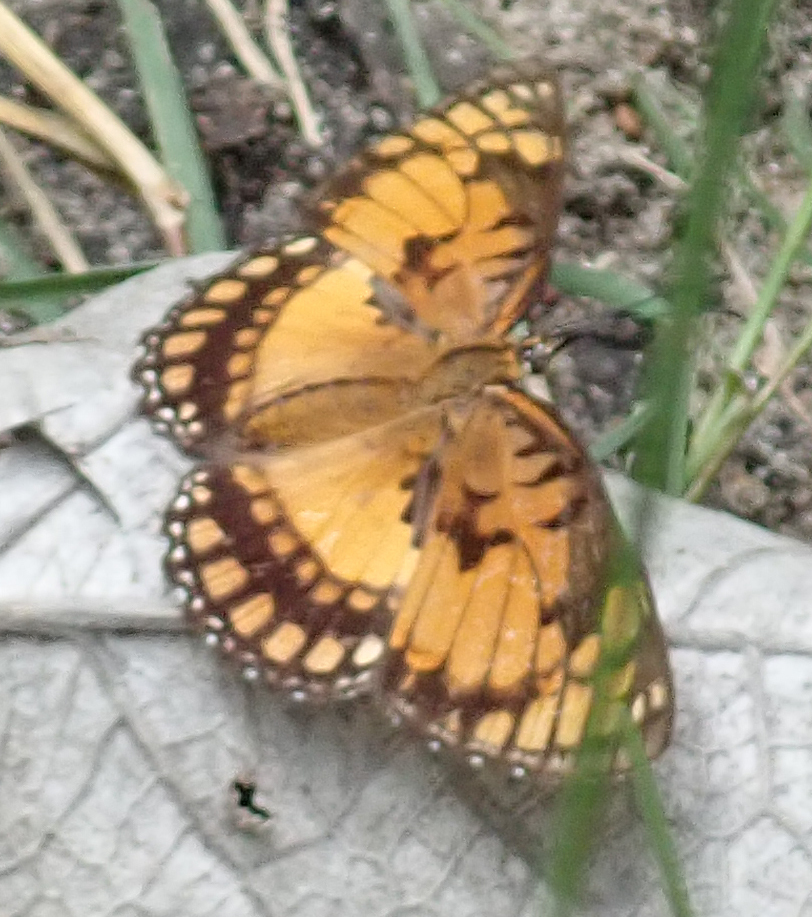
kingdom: Animalia
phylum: Arthropoda
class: Insecta
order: Lepidoptera
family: Nymphalidae
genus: Byblia
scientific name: Byblia acheloia
